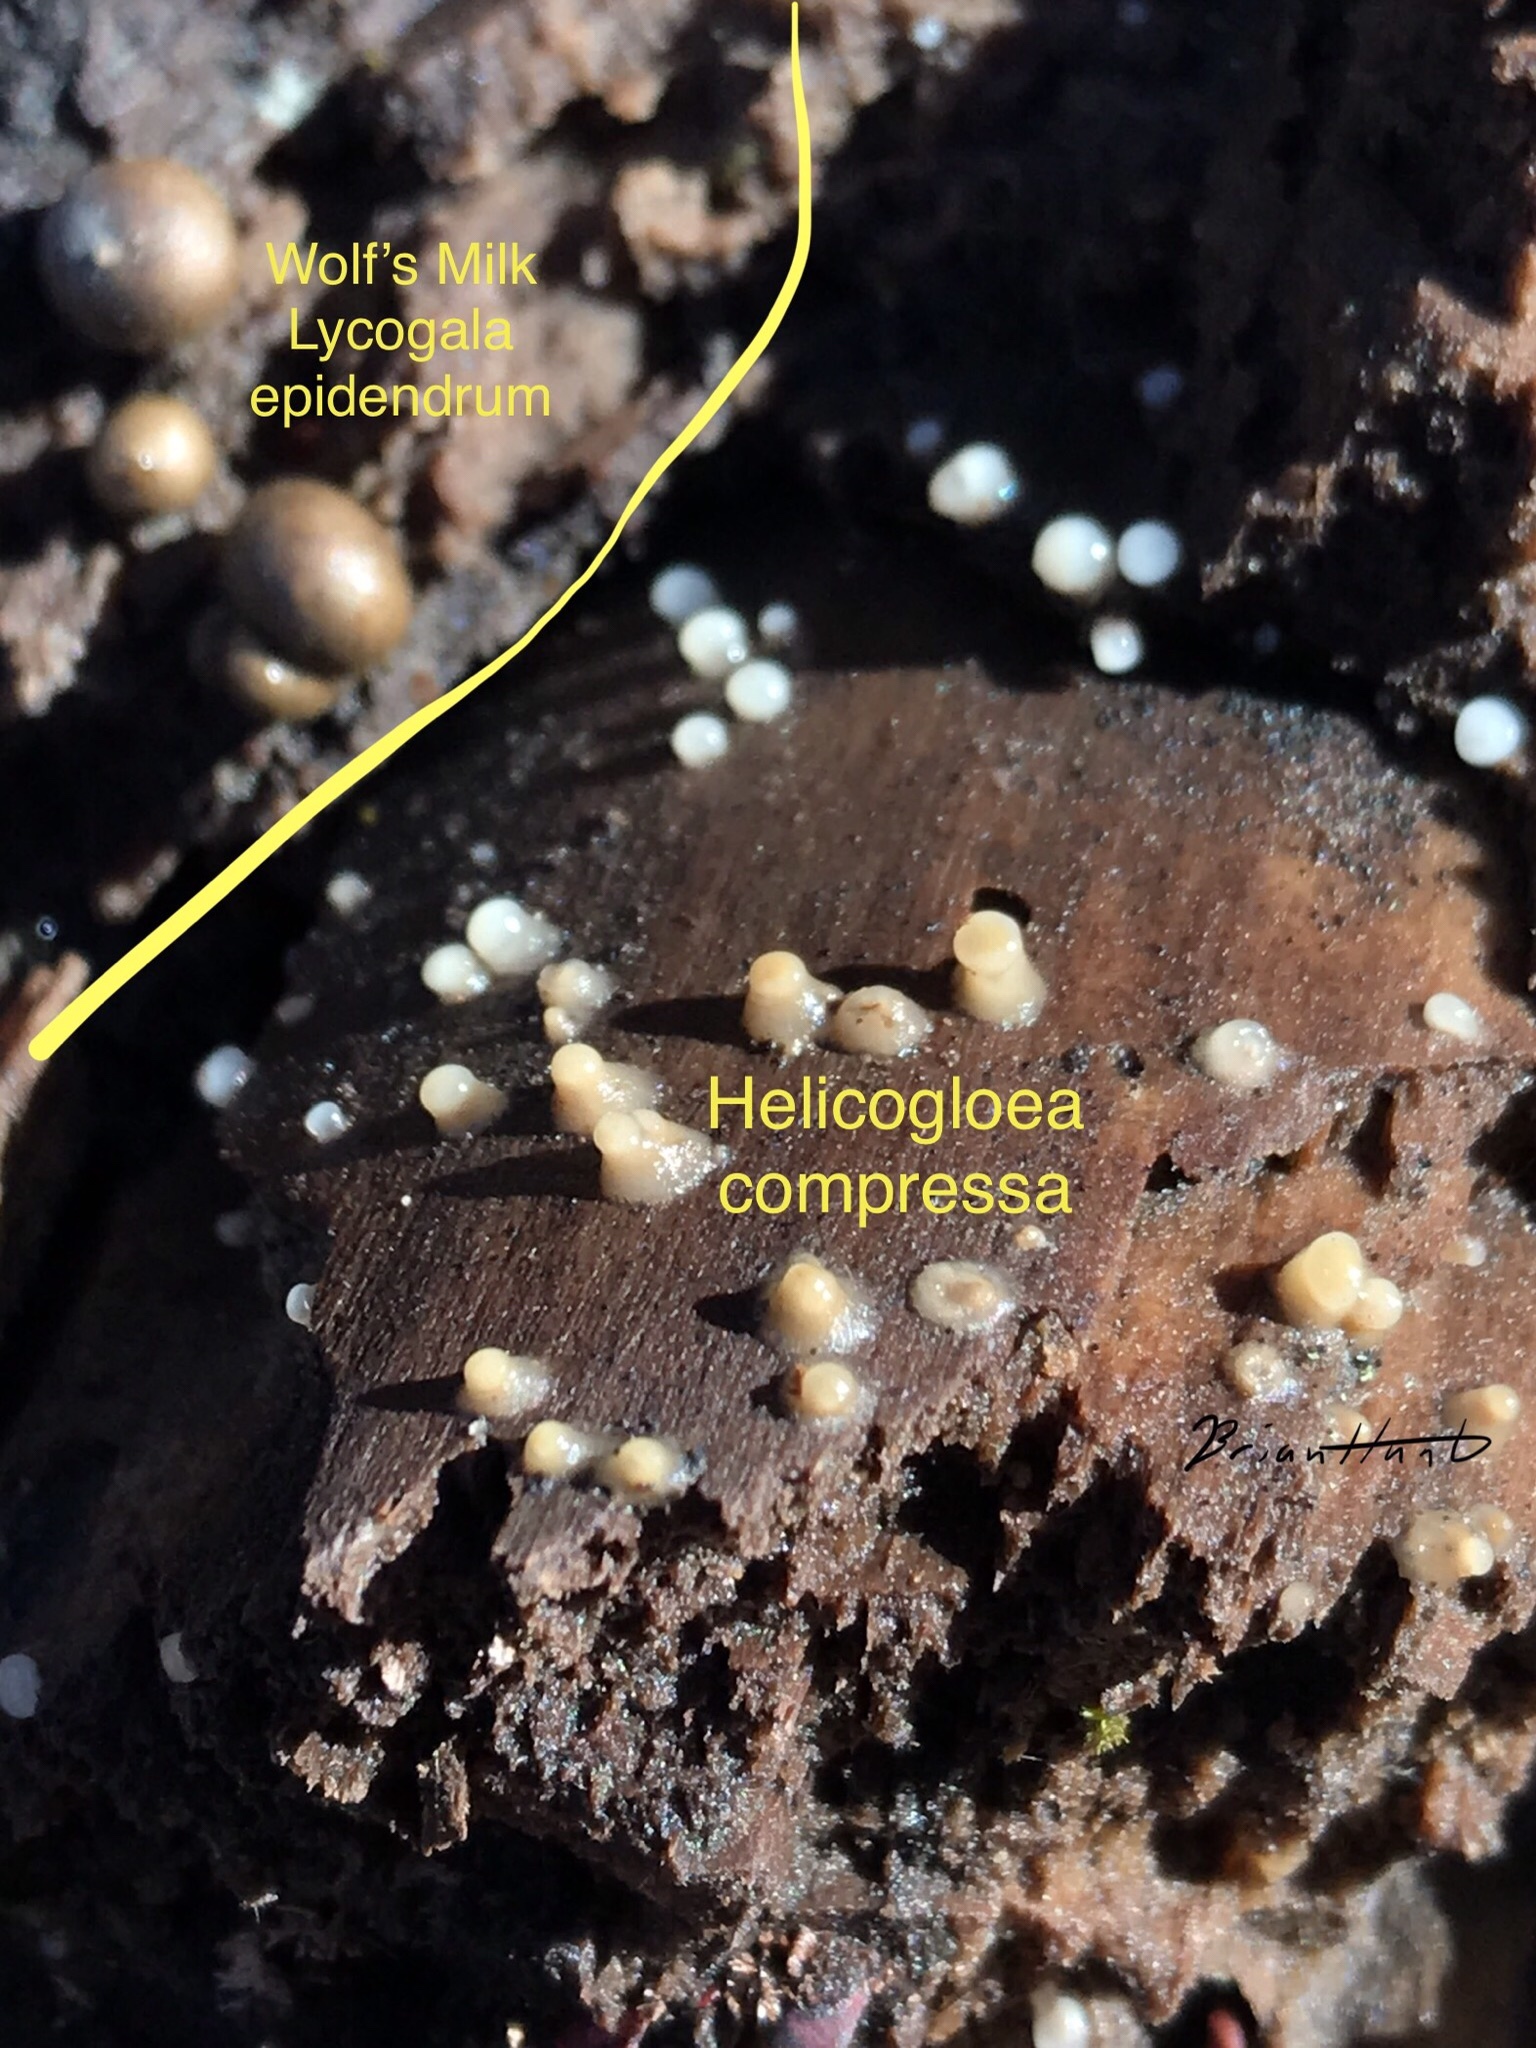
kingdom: Fungi
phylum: Basidiomycota
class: Atractiellomycetes
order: Atractiellales
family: Phleogenaceae
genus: Helicogloea
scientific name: Helicogloea compressa
